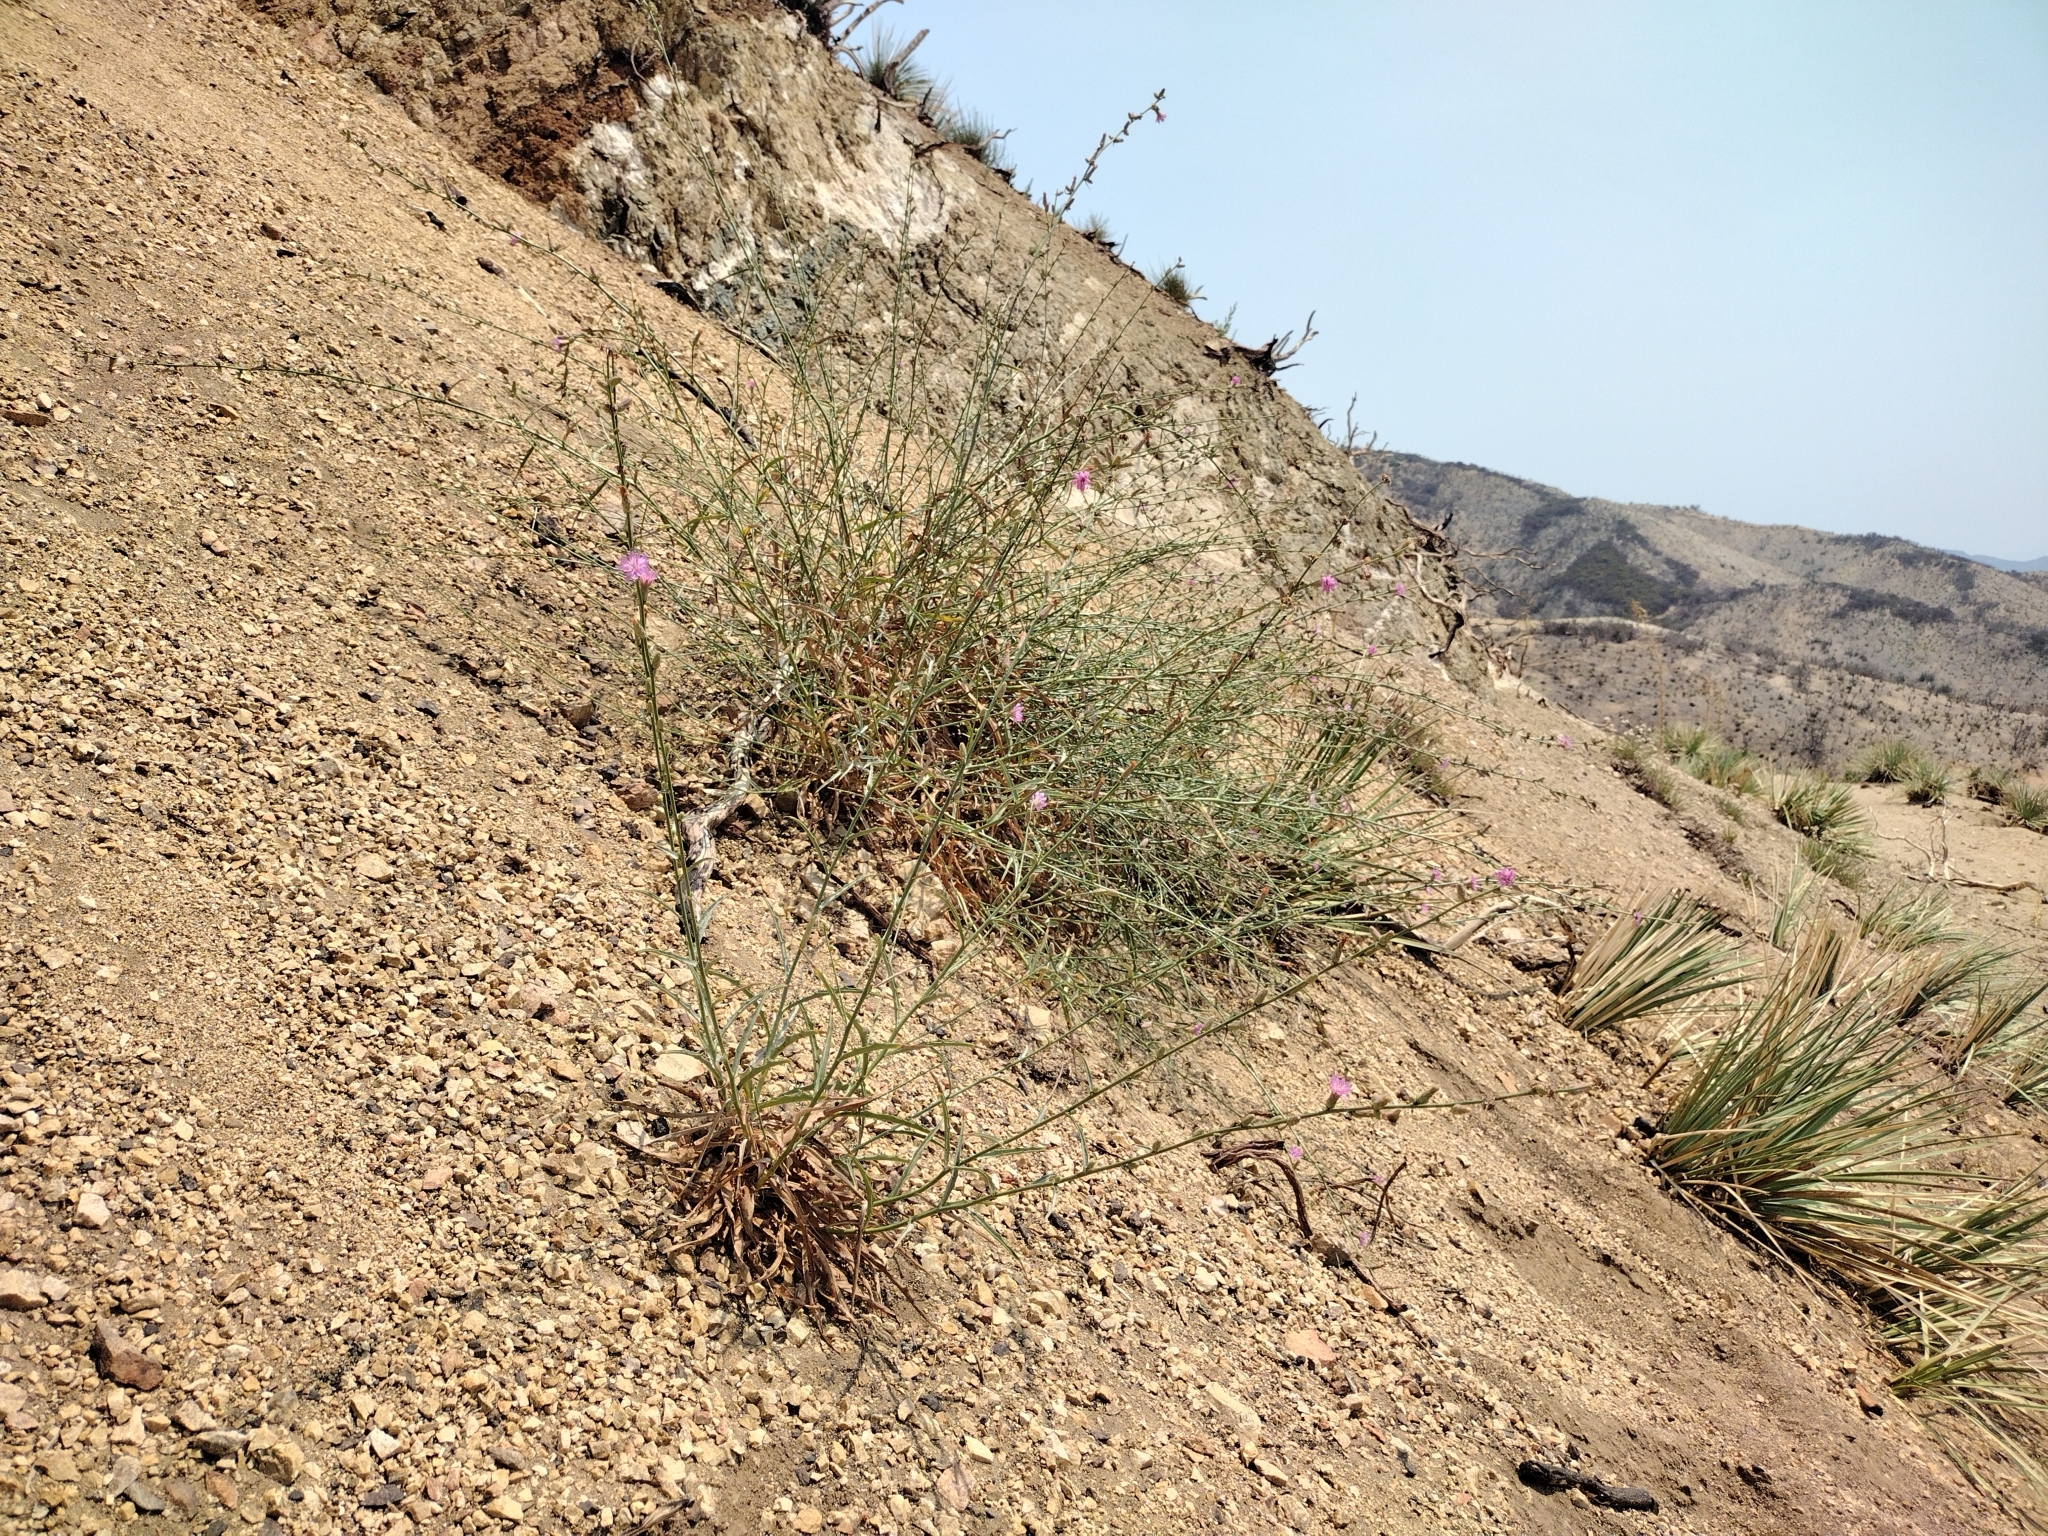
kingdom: Plantae
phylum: Tracheophyta
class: Magnoliopsida
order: Asterales
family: Asteraceae
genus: Stephanomeria
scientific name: Stephanomeria cichoriacea
